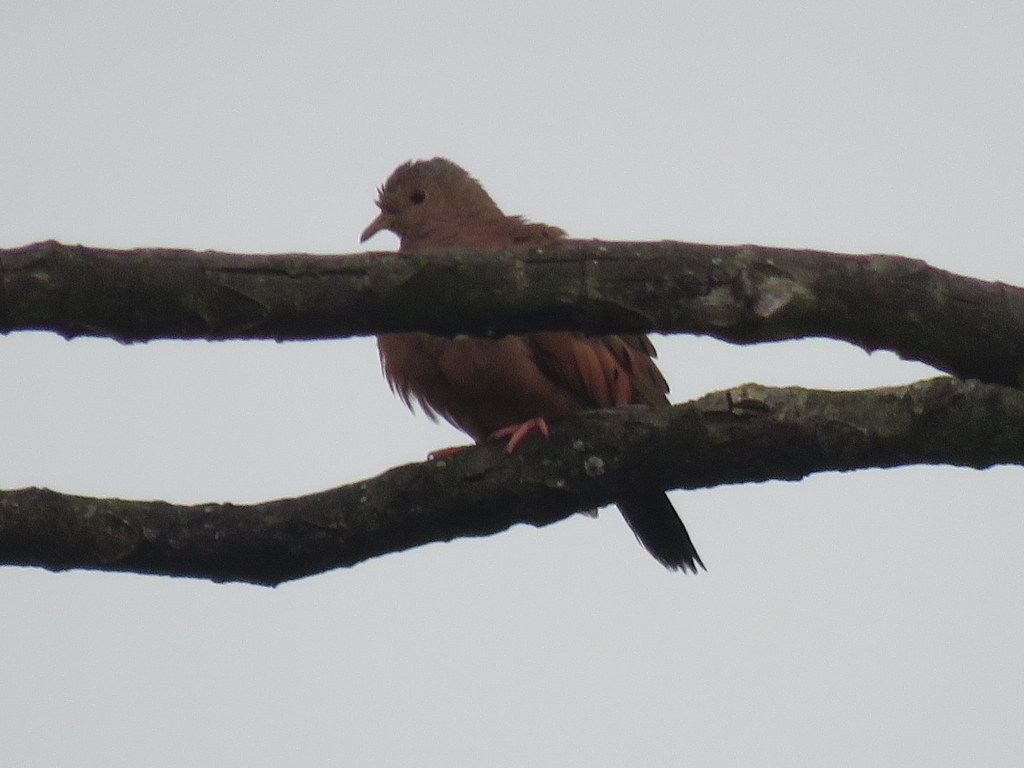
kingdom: Animalia
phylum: Chordata
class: Aves
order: Columbiformes
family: Columbidae
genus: Columbina
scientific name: Columbina talpacoti
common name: Ruddy ground dove
